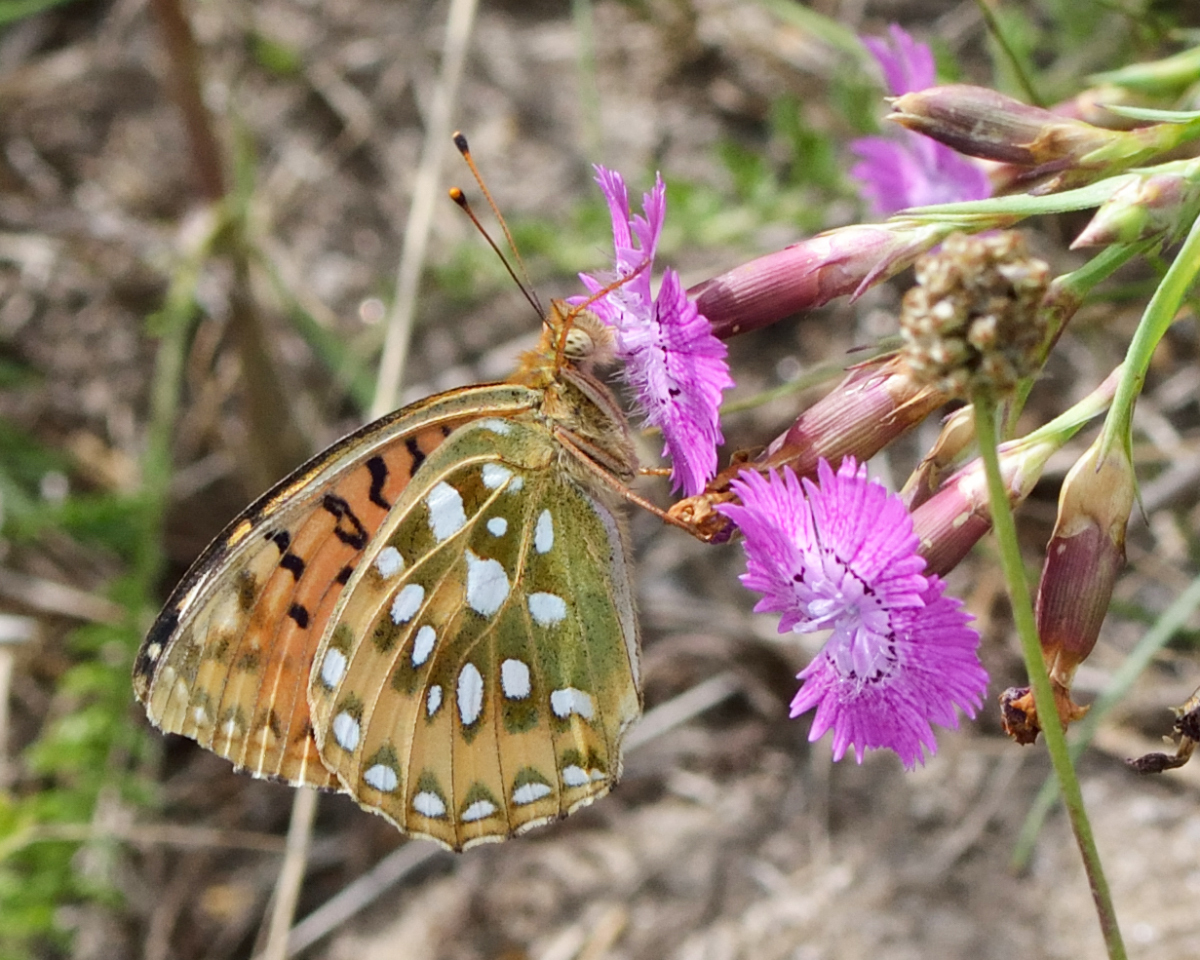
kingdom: Animalia
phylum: Arthropoda
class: Insecta
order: Lepidoptera
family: Nymphalidae
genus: Speyeria
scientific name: Speyeria aglaja
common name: Dark green fritillary
